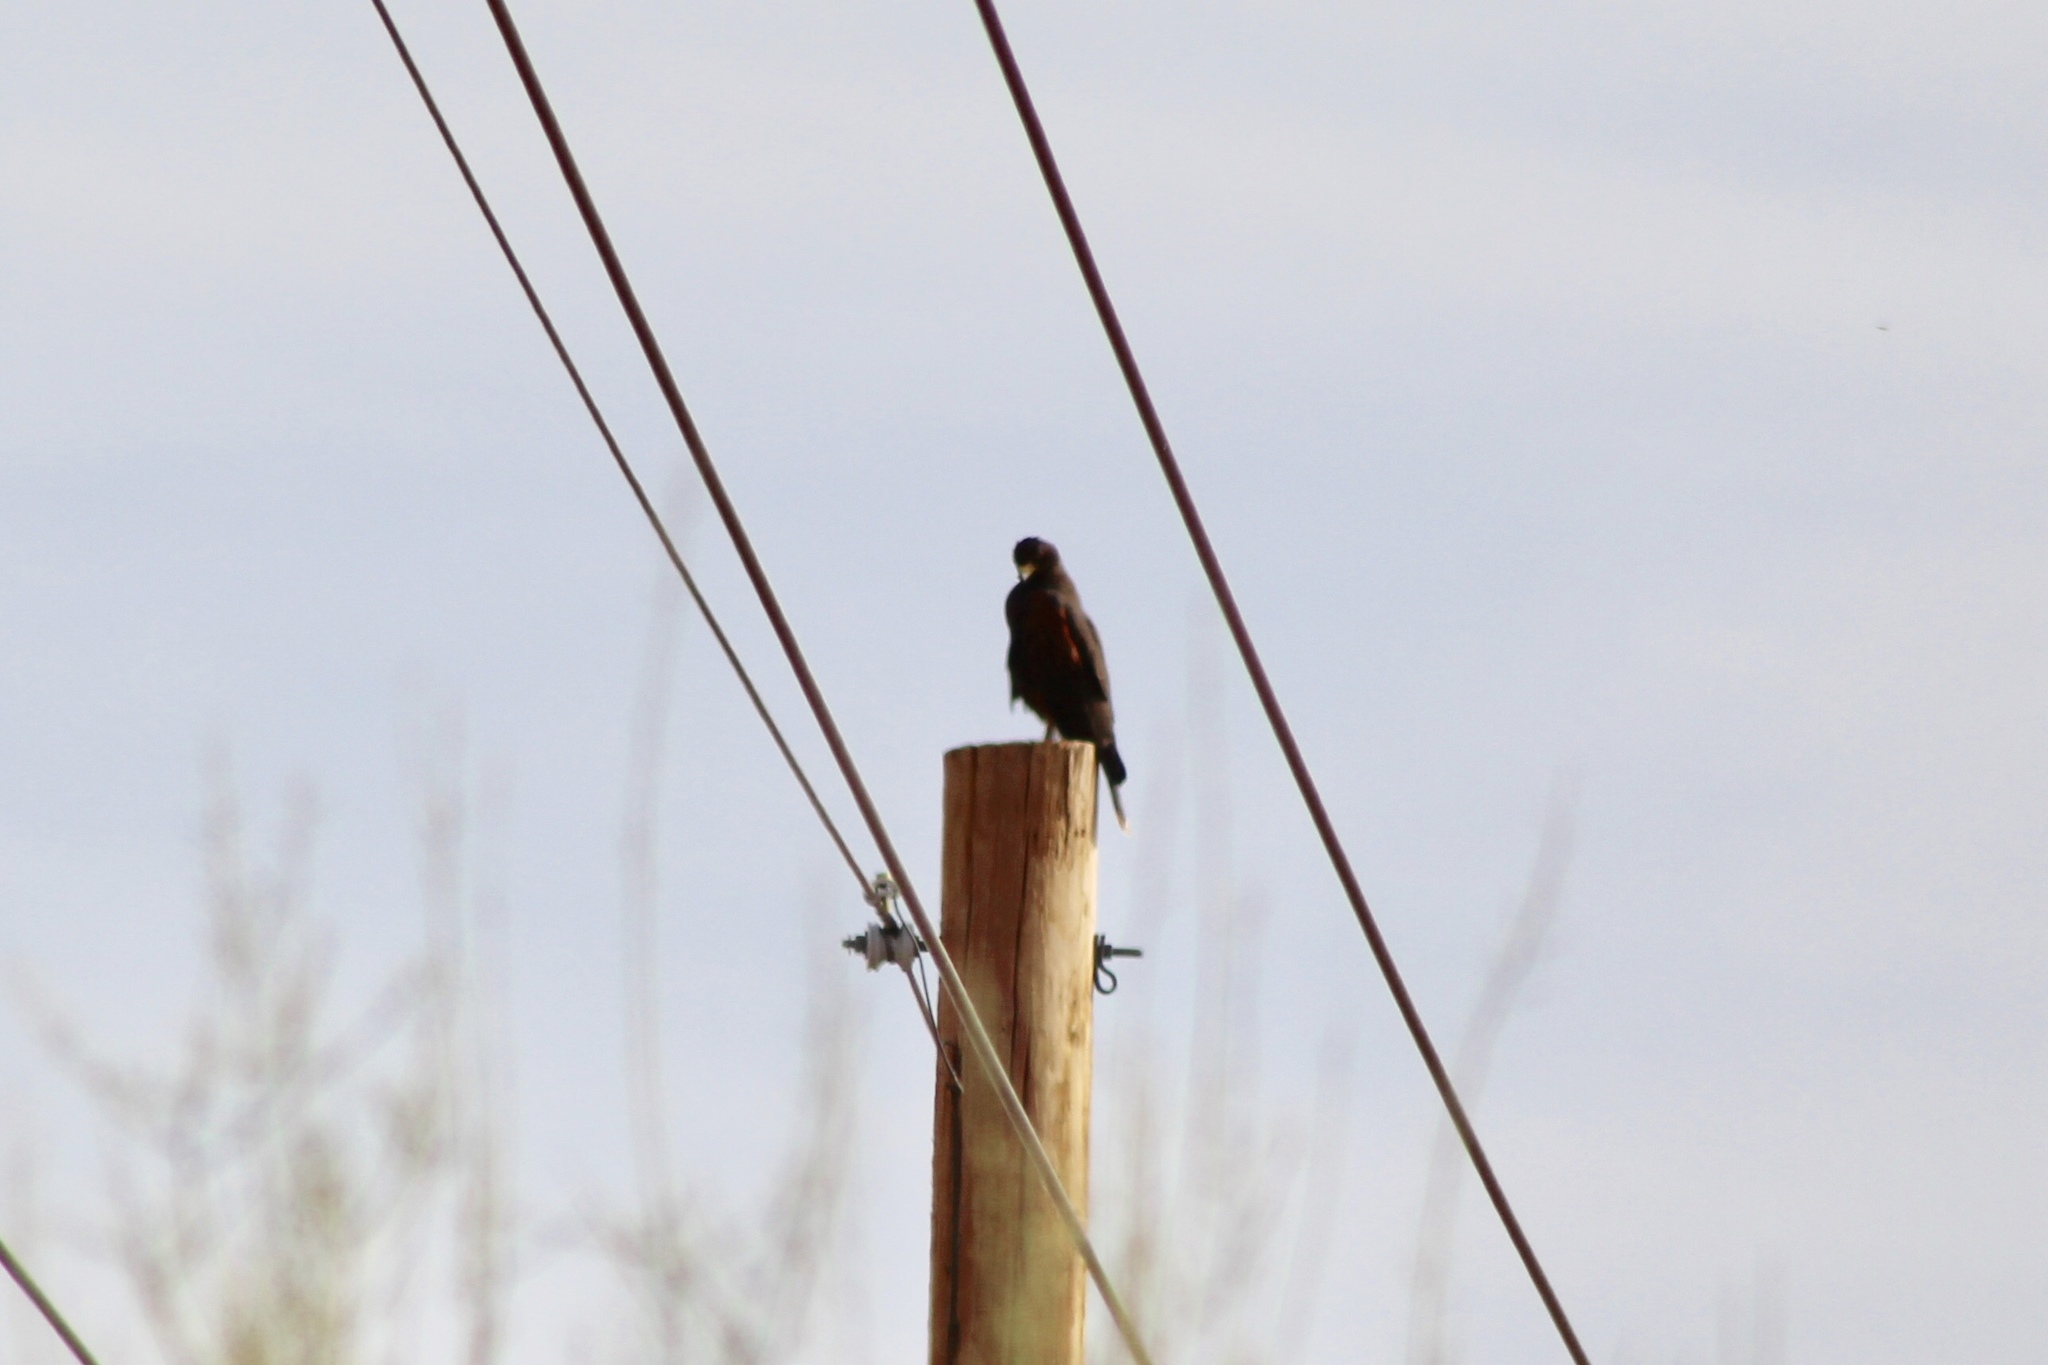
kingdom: Animalia
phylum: Chordata
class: Aves
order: Accipitriformes
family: Accipitridae
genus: Parabuteo
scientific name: Parabuteo unicinctus
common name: Harris's hawk
